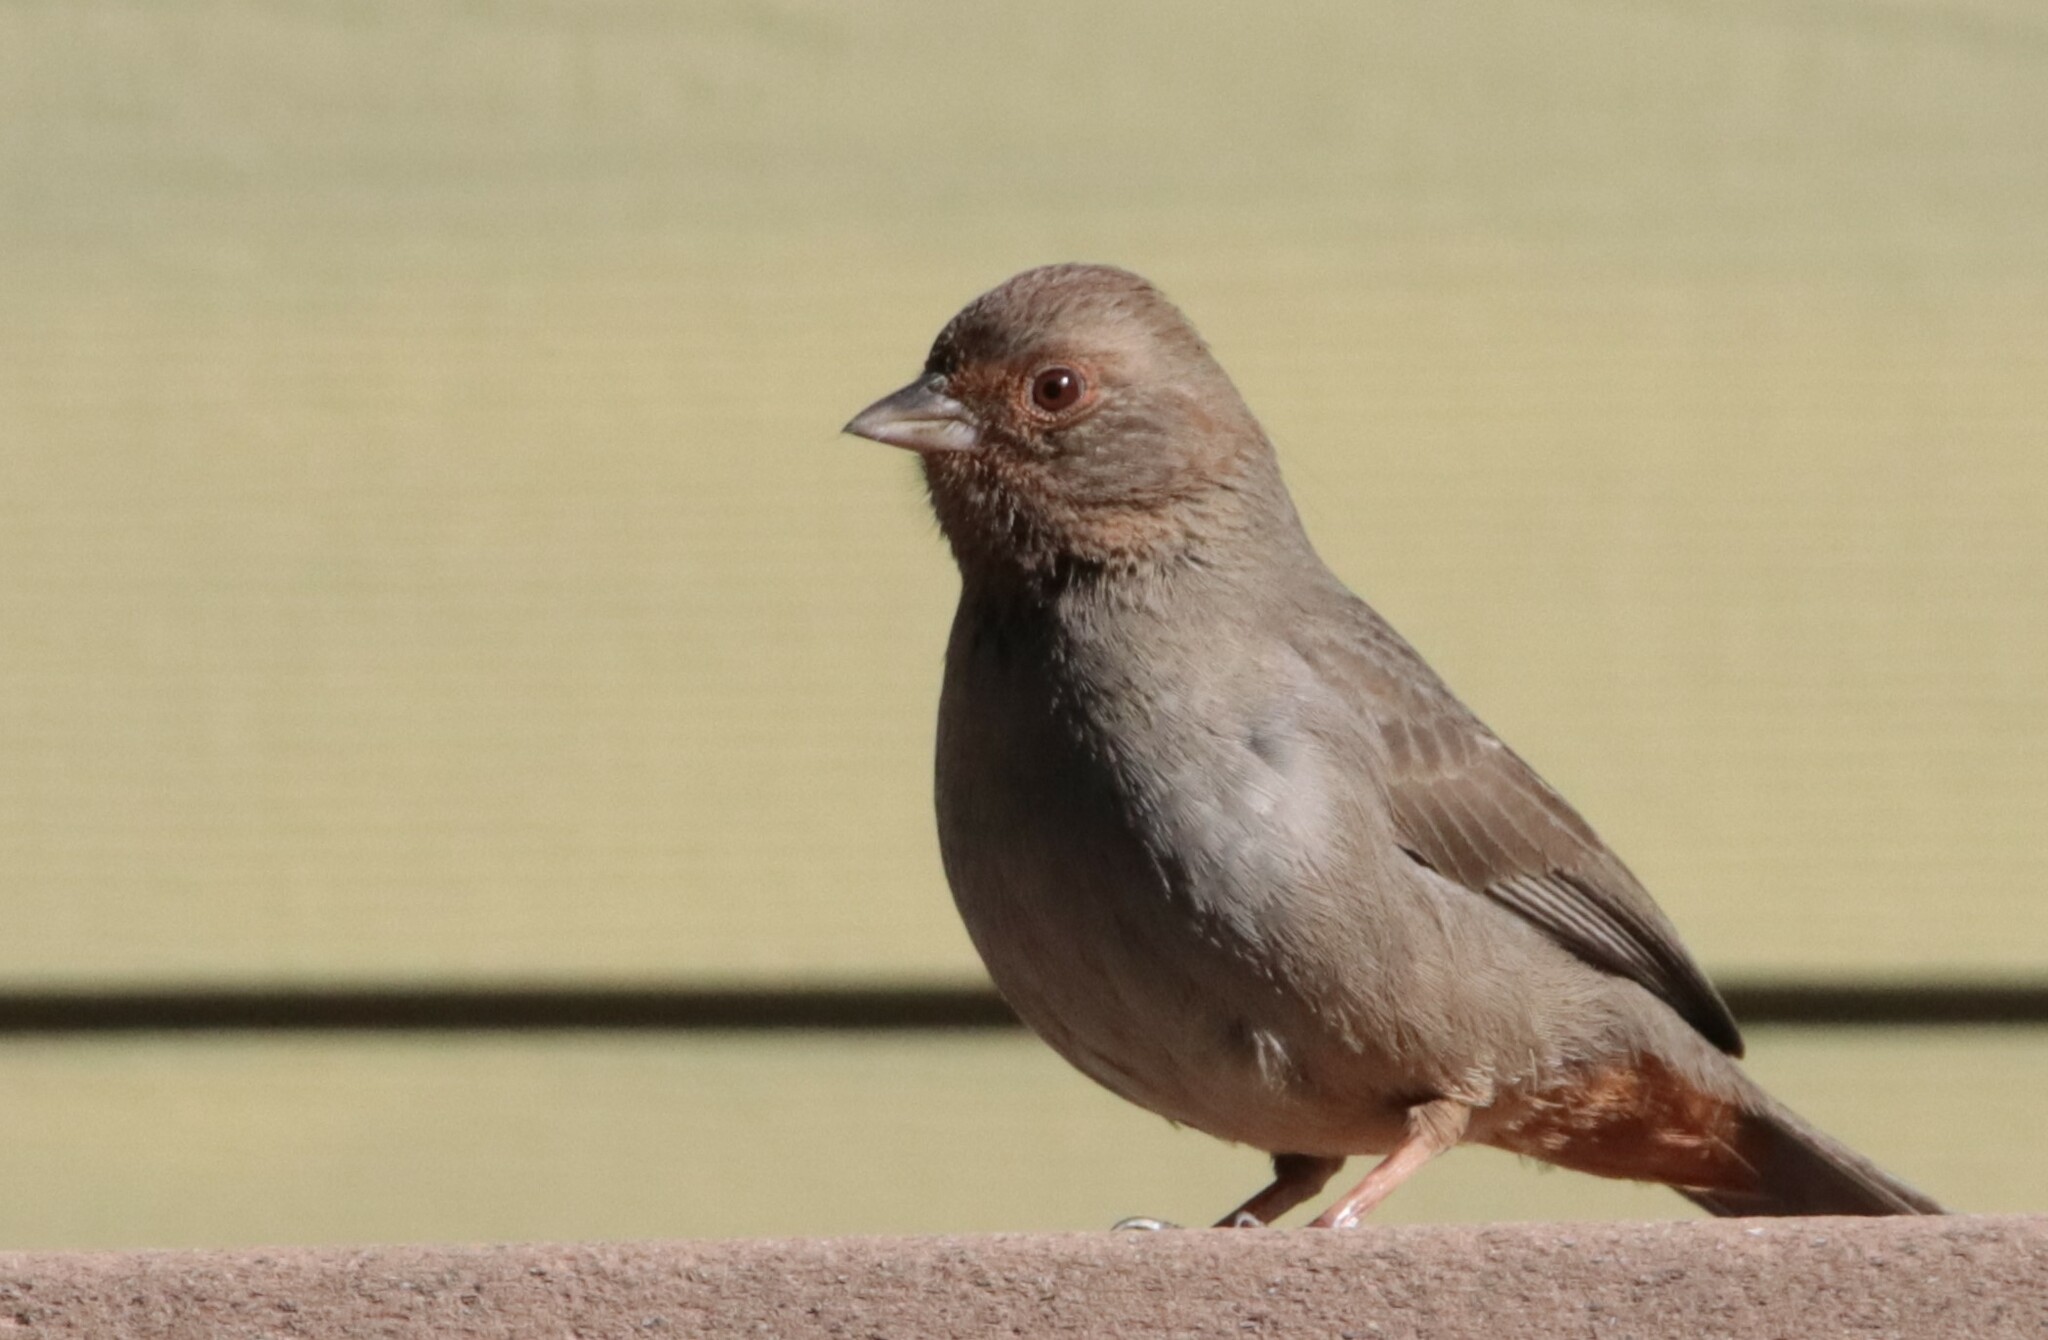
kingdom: Animalia
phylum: Chordata
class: Aves
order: Passeriformes
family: Passerellidae
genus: Melozone
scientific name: Melozone crissalis
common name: California towhee
